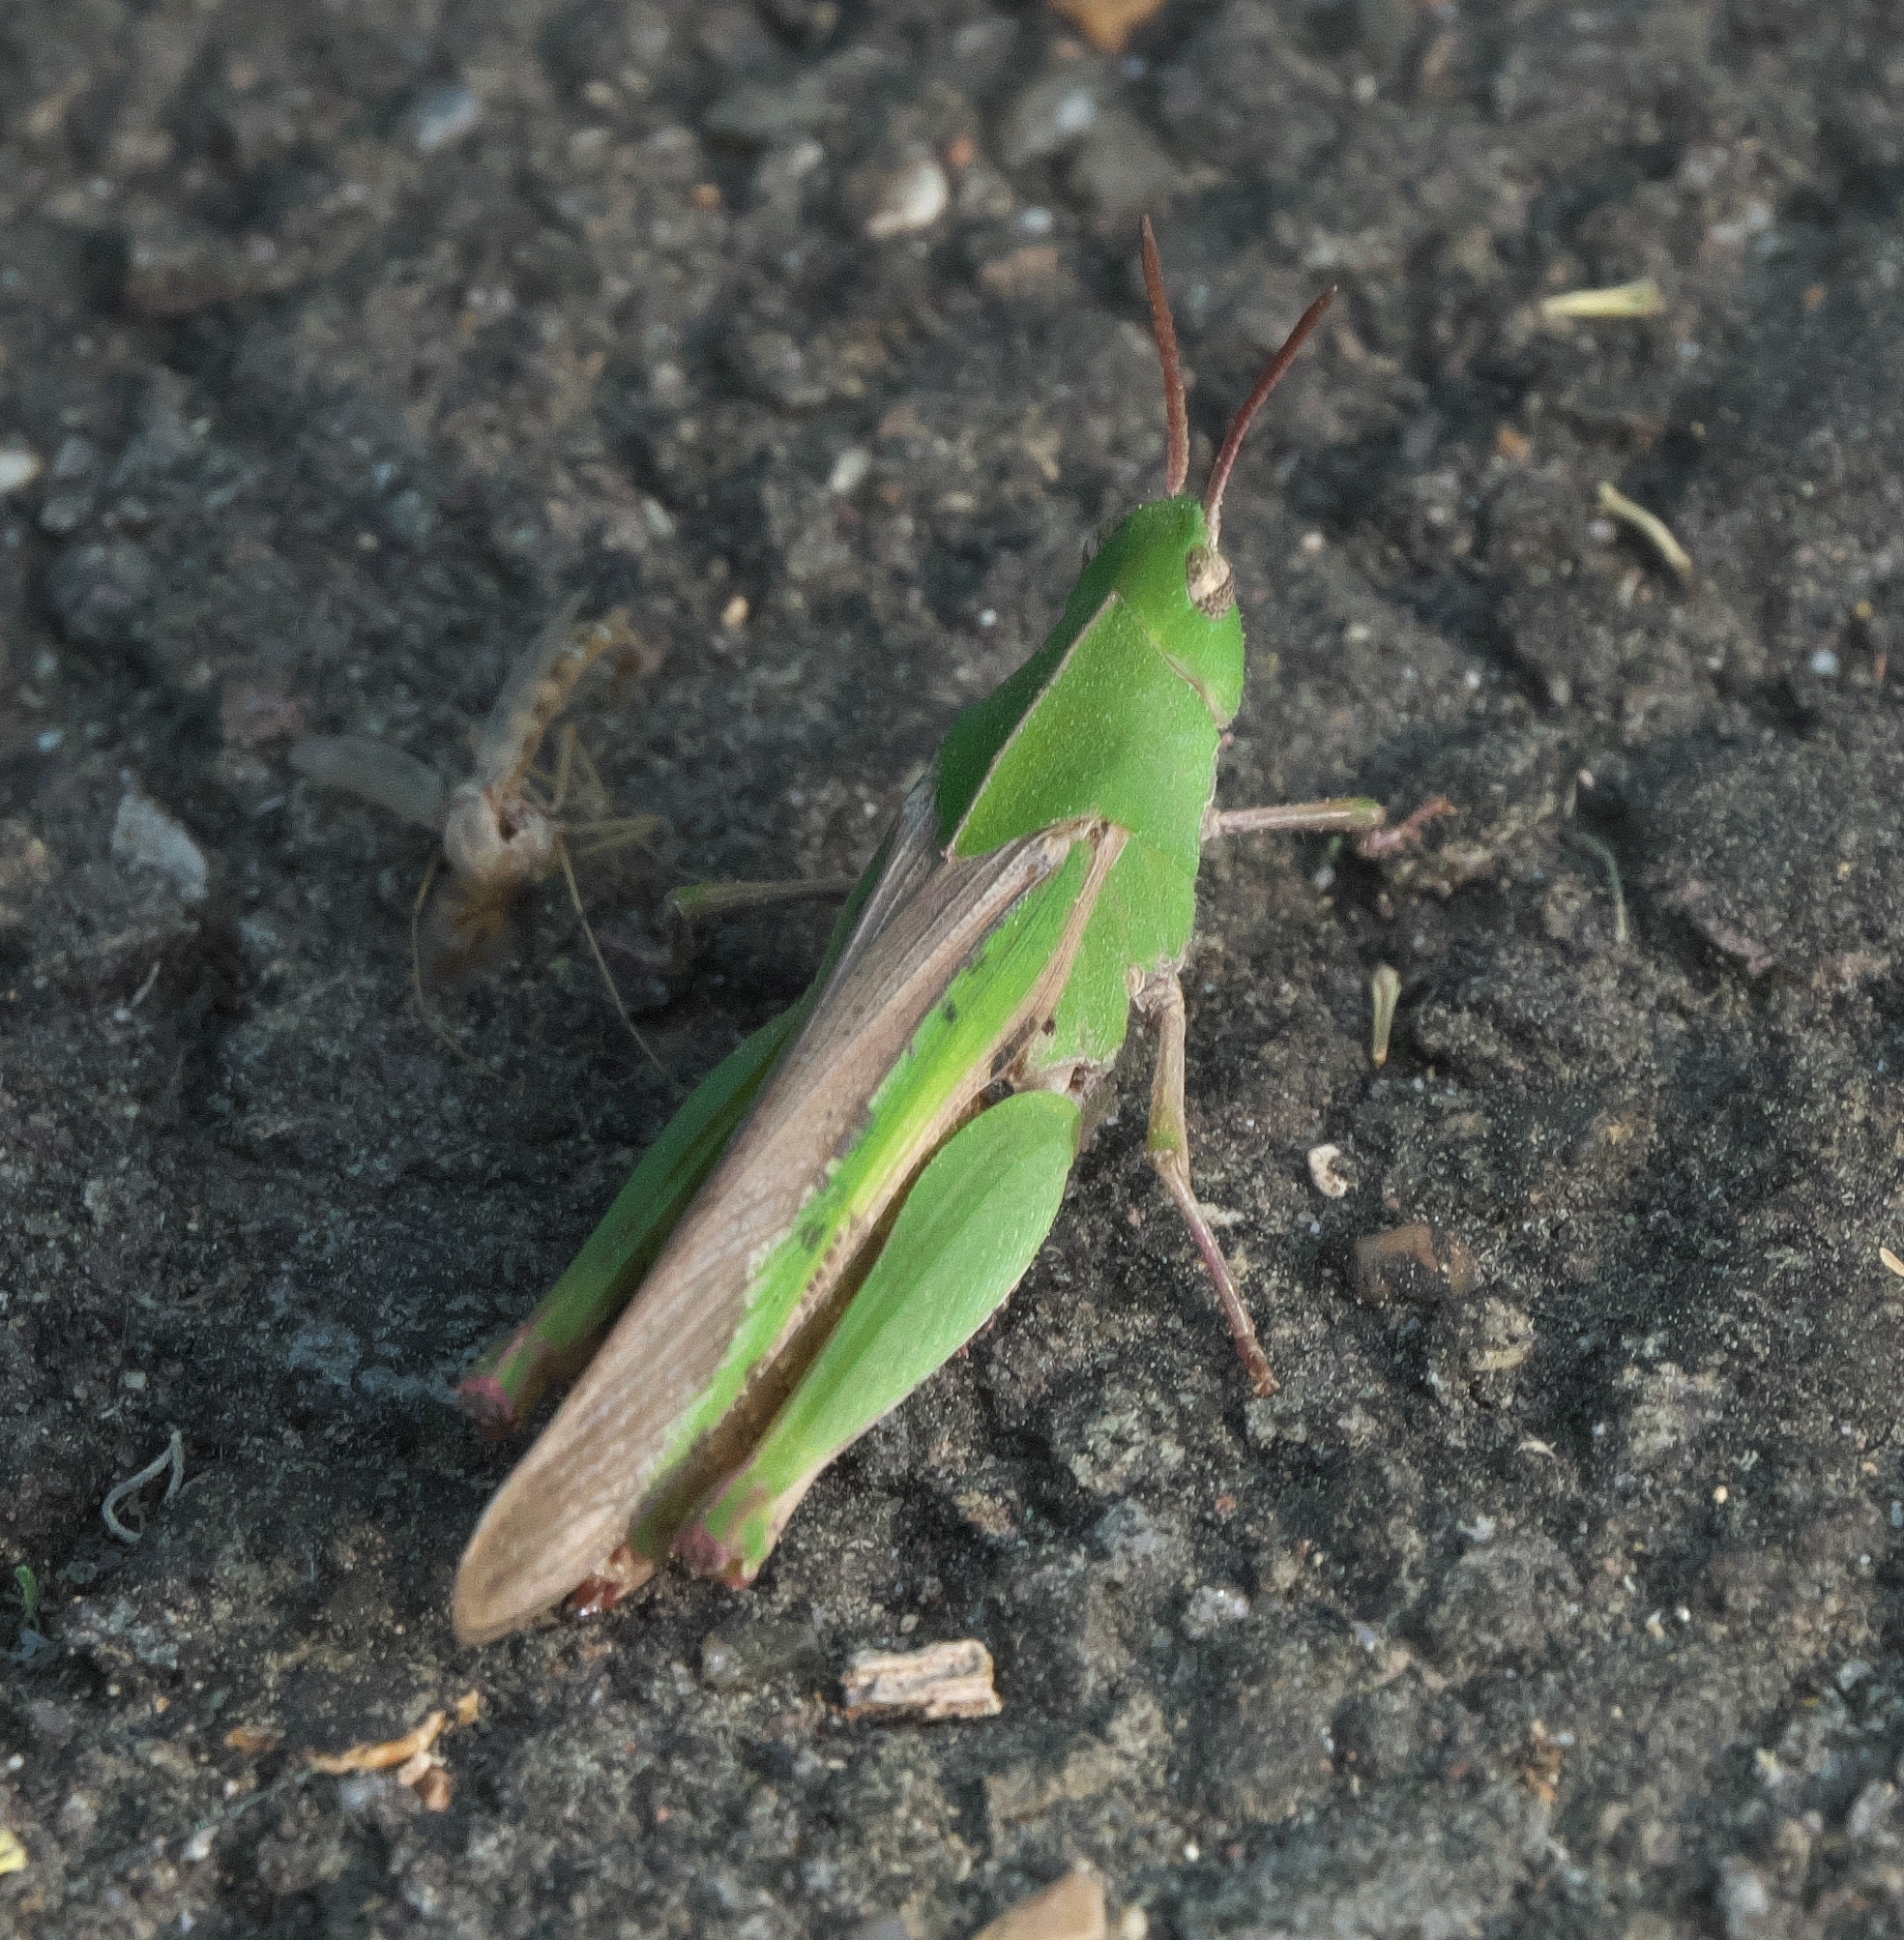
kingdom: Animalia
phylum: Arthropoda
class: Insecta
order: Orthoptera
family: Acrididae
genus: Chortophaga
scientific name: Chortophaga viridifasciata
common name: Green-striped grasshopper
